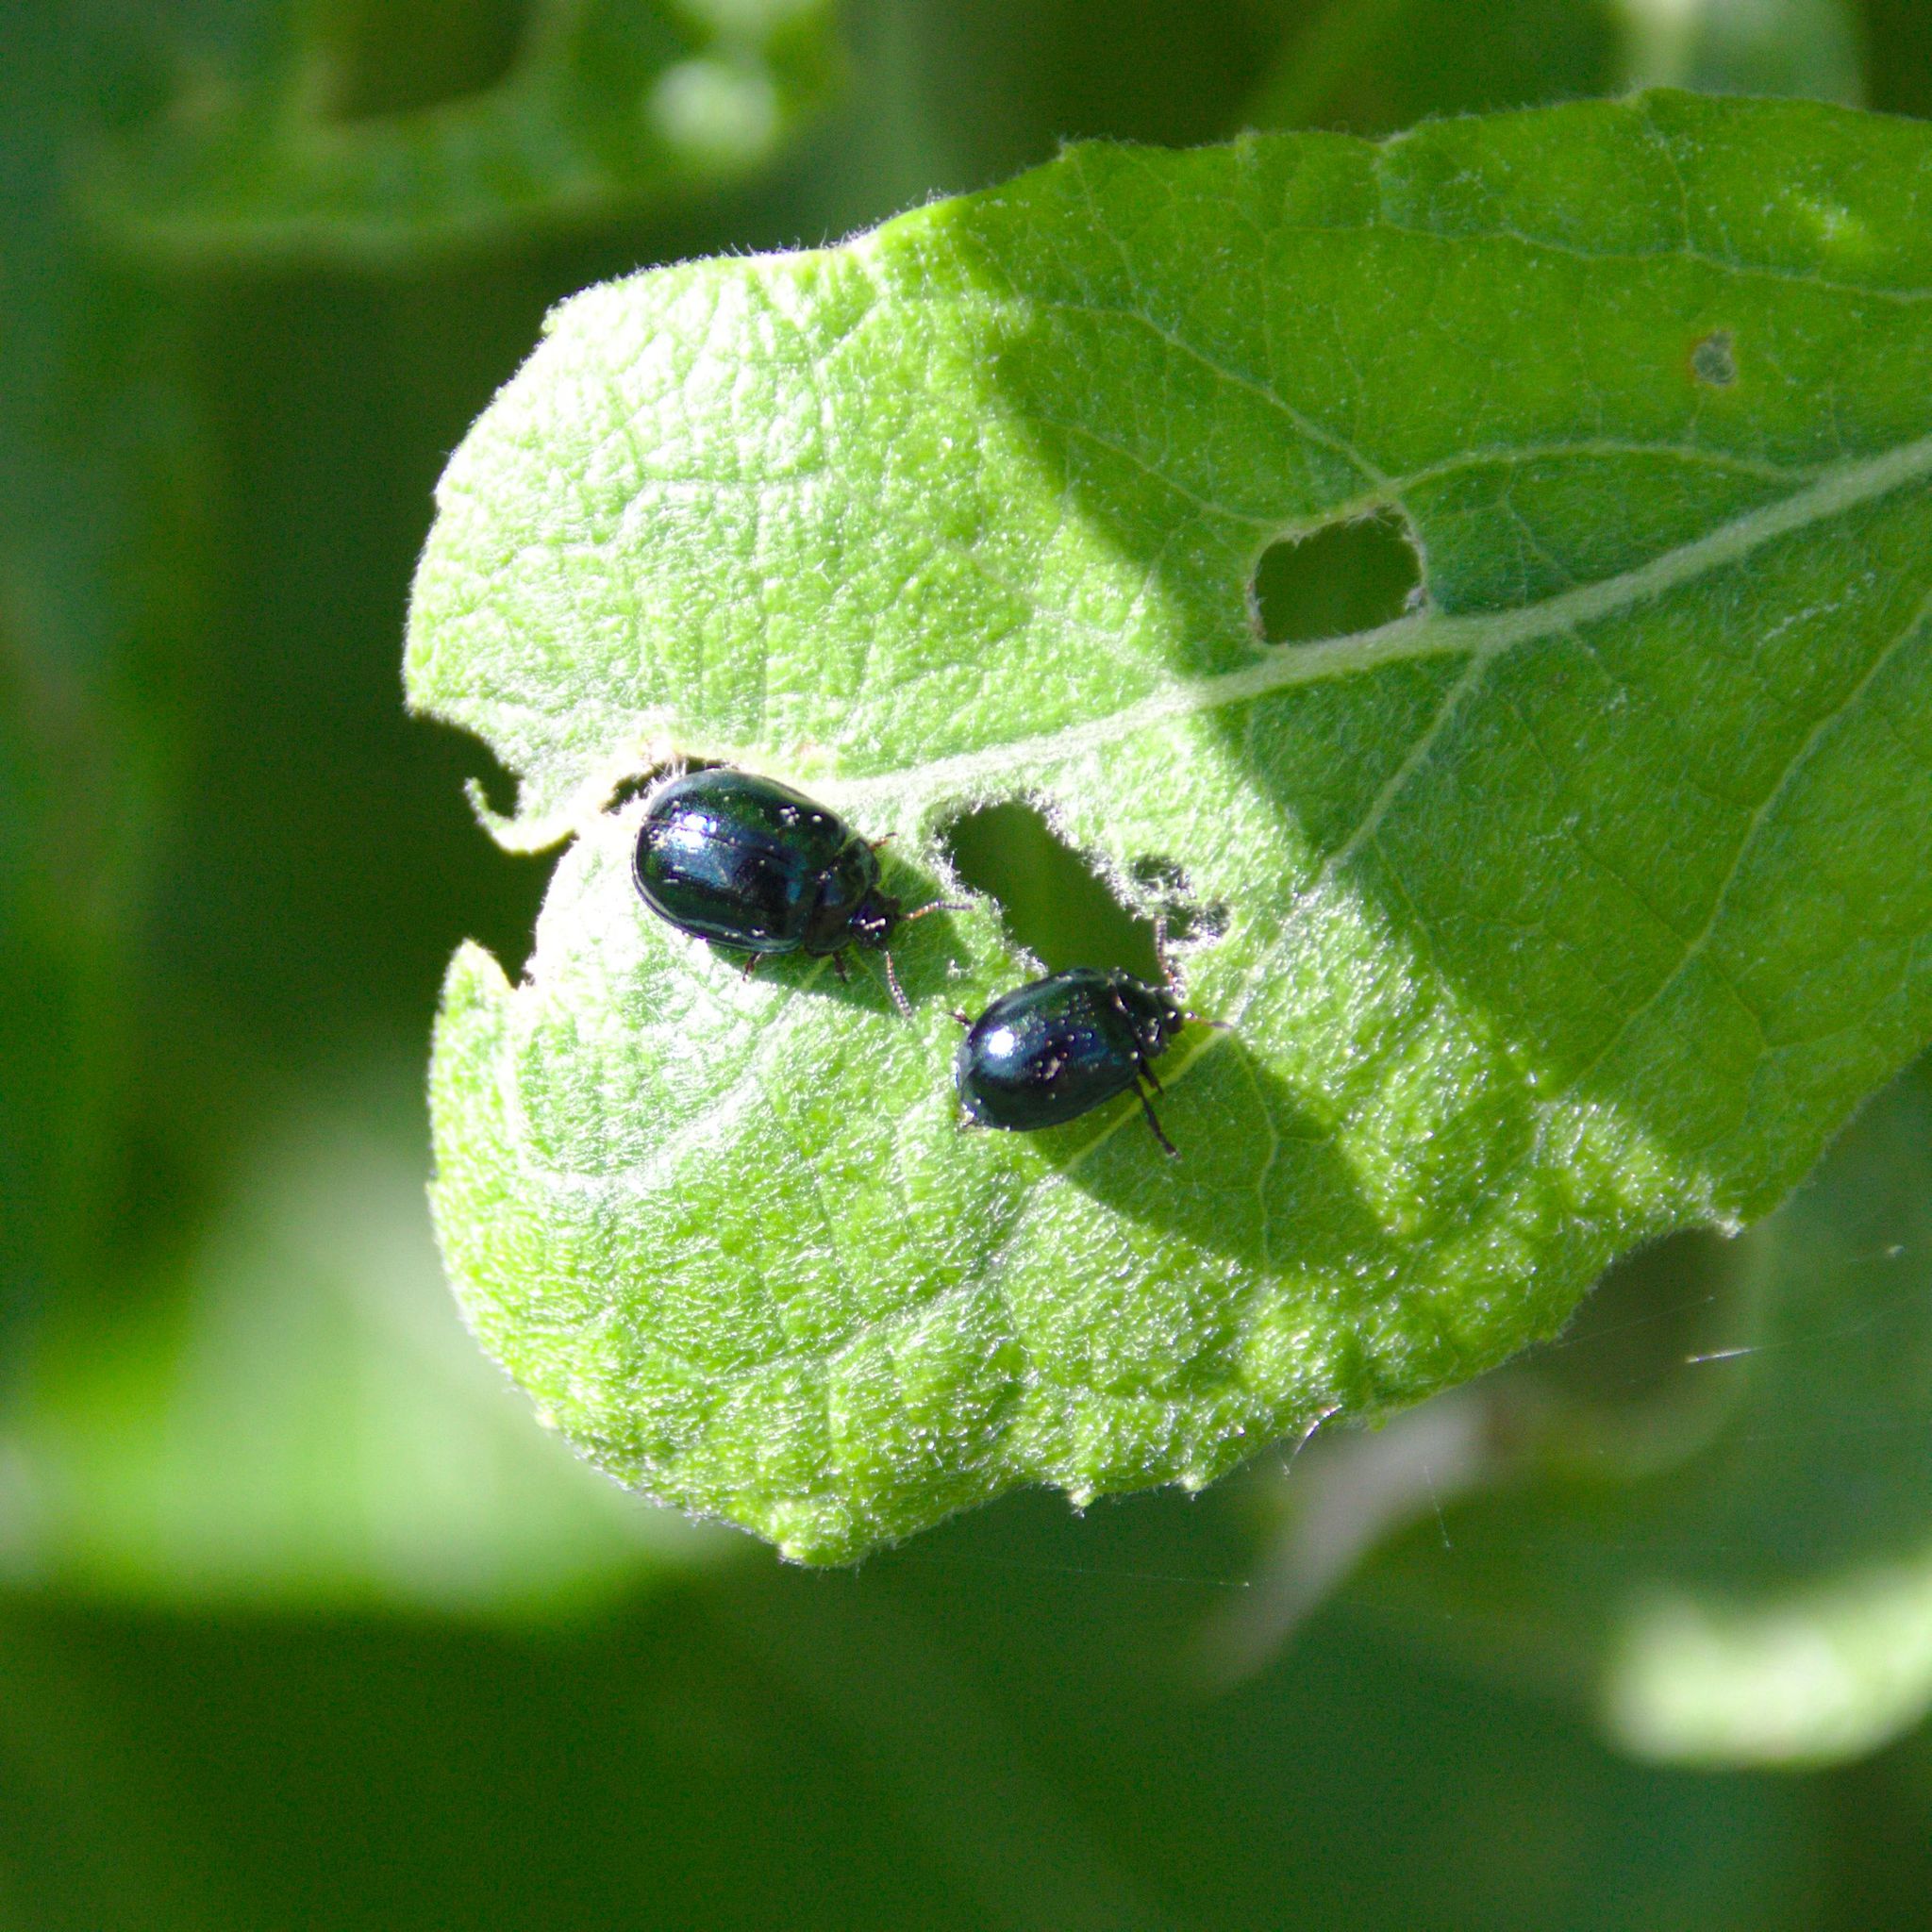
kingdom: Animalia
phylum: Arthropoda
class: Insecta
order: Coleoptera
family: Chrysomelidae
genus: Plagiodera
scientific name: Plagiodera versicolora
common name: Imported willow leaf beetle
